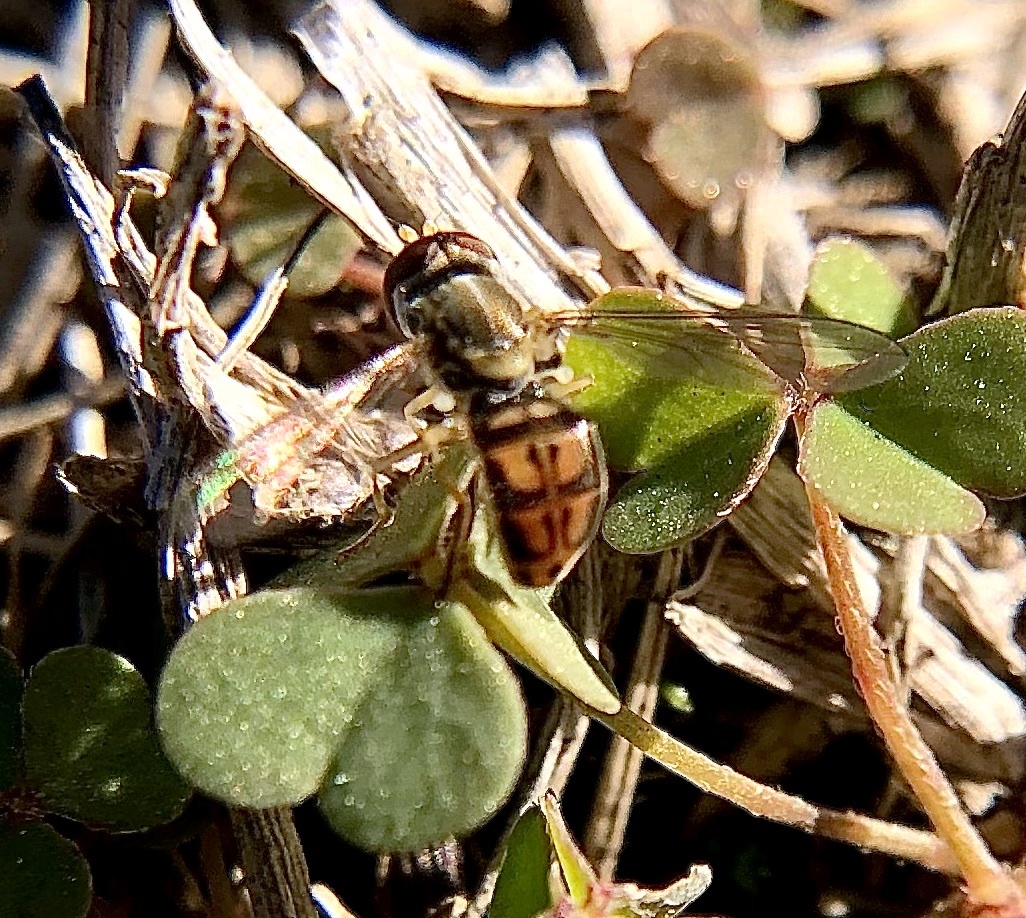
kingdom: Animalia
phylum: Arthropoda
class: Insecta
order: Diptera
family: Syrphidae
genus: Toxomerus
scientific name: Toxomerus marginatus
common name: Syrphid fly
